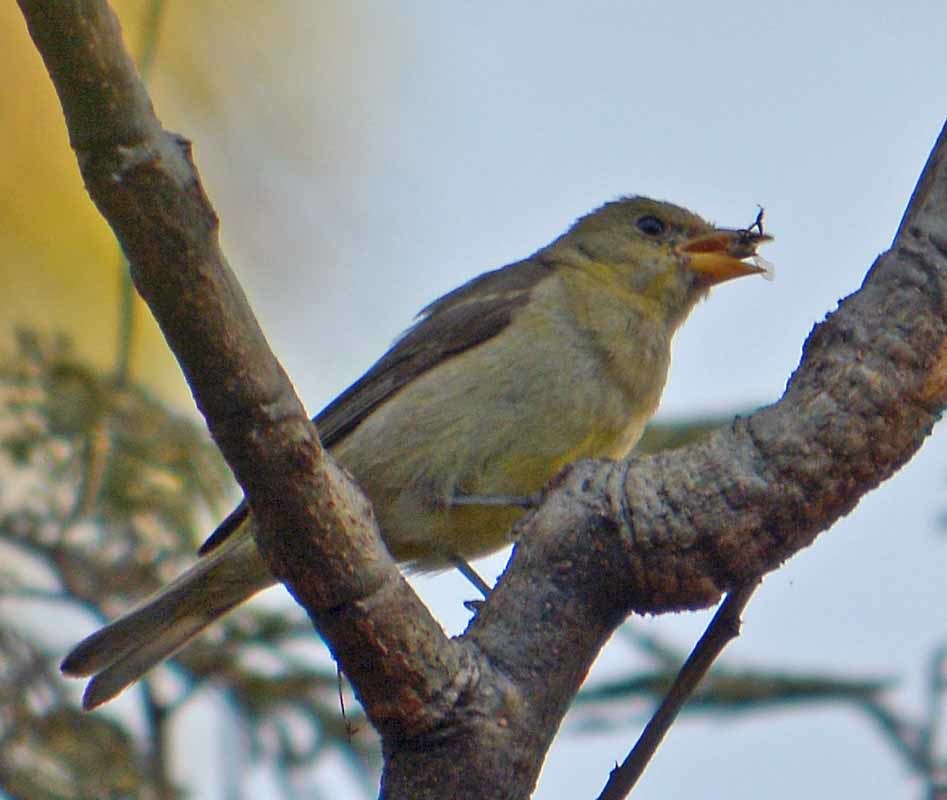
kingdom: Animalia
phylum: Chordata
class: Aves
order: Passeriformes
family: Cardinalidae
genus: Piranga
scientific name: Piranga ludoviciana
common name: Western tanager
